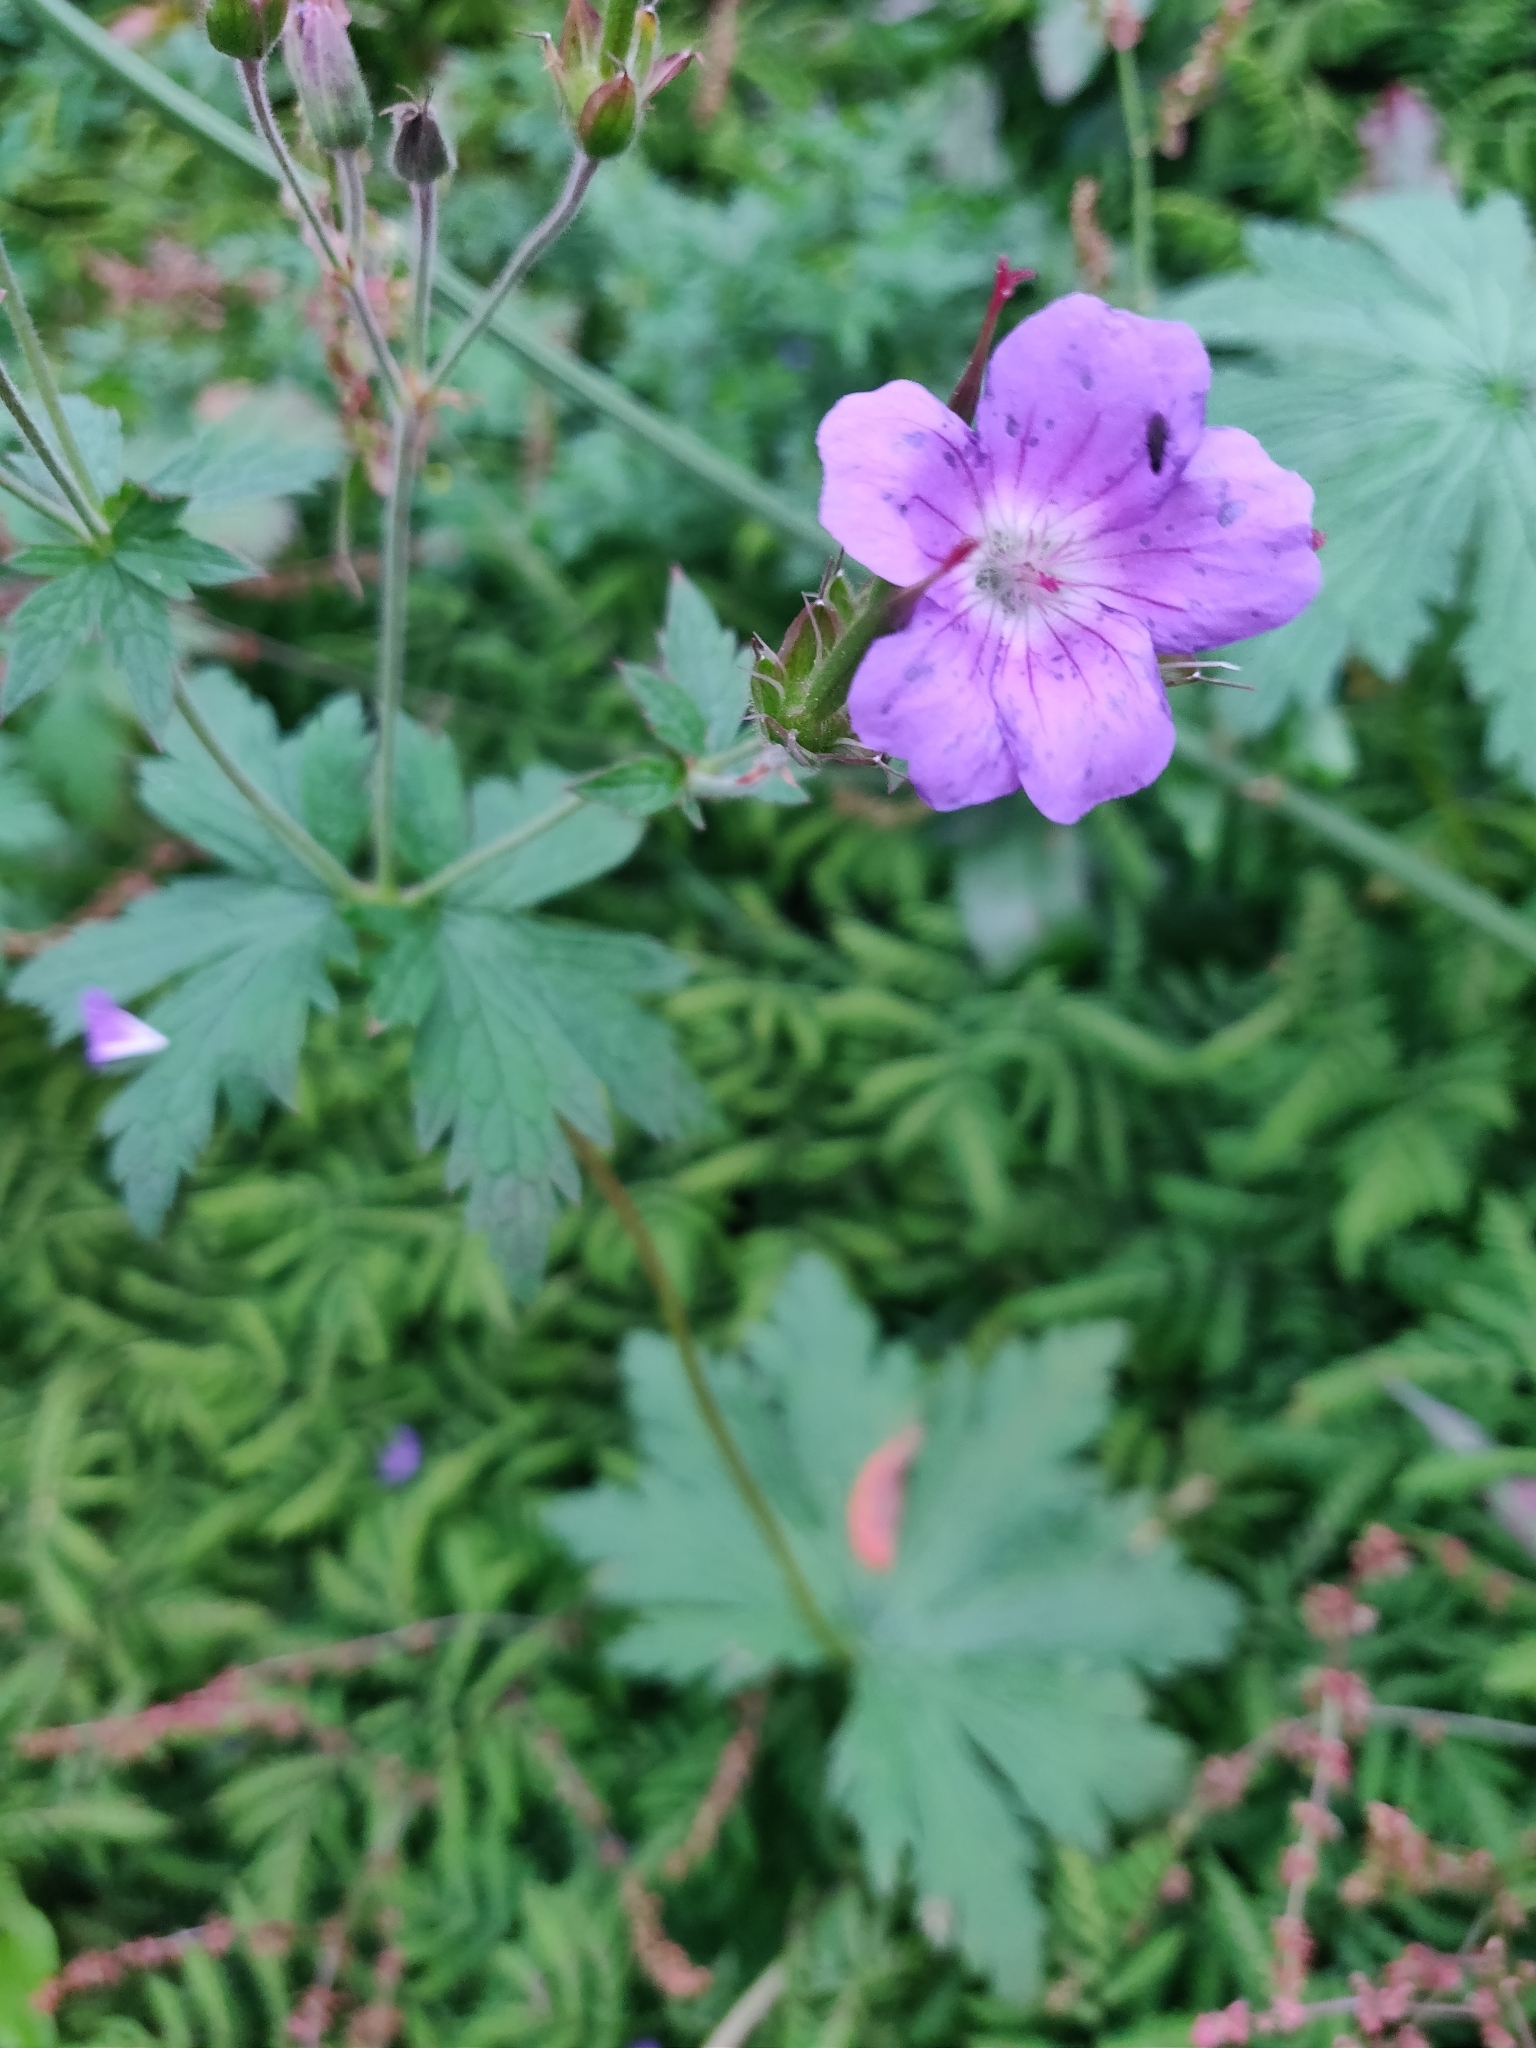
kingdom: Plantae
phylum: Tracheophyta
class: Magnoliopsida
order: Geraniales
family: Geraniaceae
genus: Geranium
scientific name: Geranium sylvaticum
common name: Wood crane's-bill
